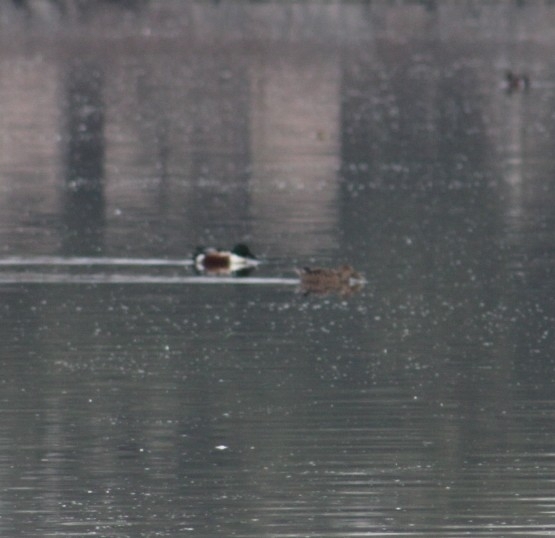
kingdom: Animalia
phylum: Chordata
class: Aves
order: Anseriformes
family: Anatidae
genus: Spatula
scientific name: Spatula clypeata
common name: Northern shoveler
